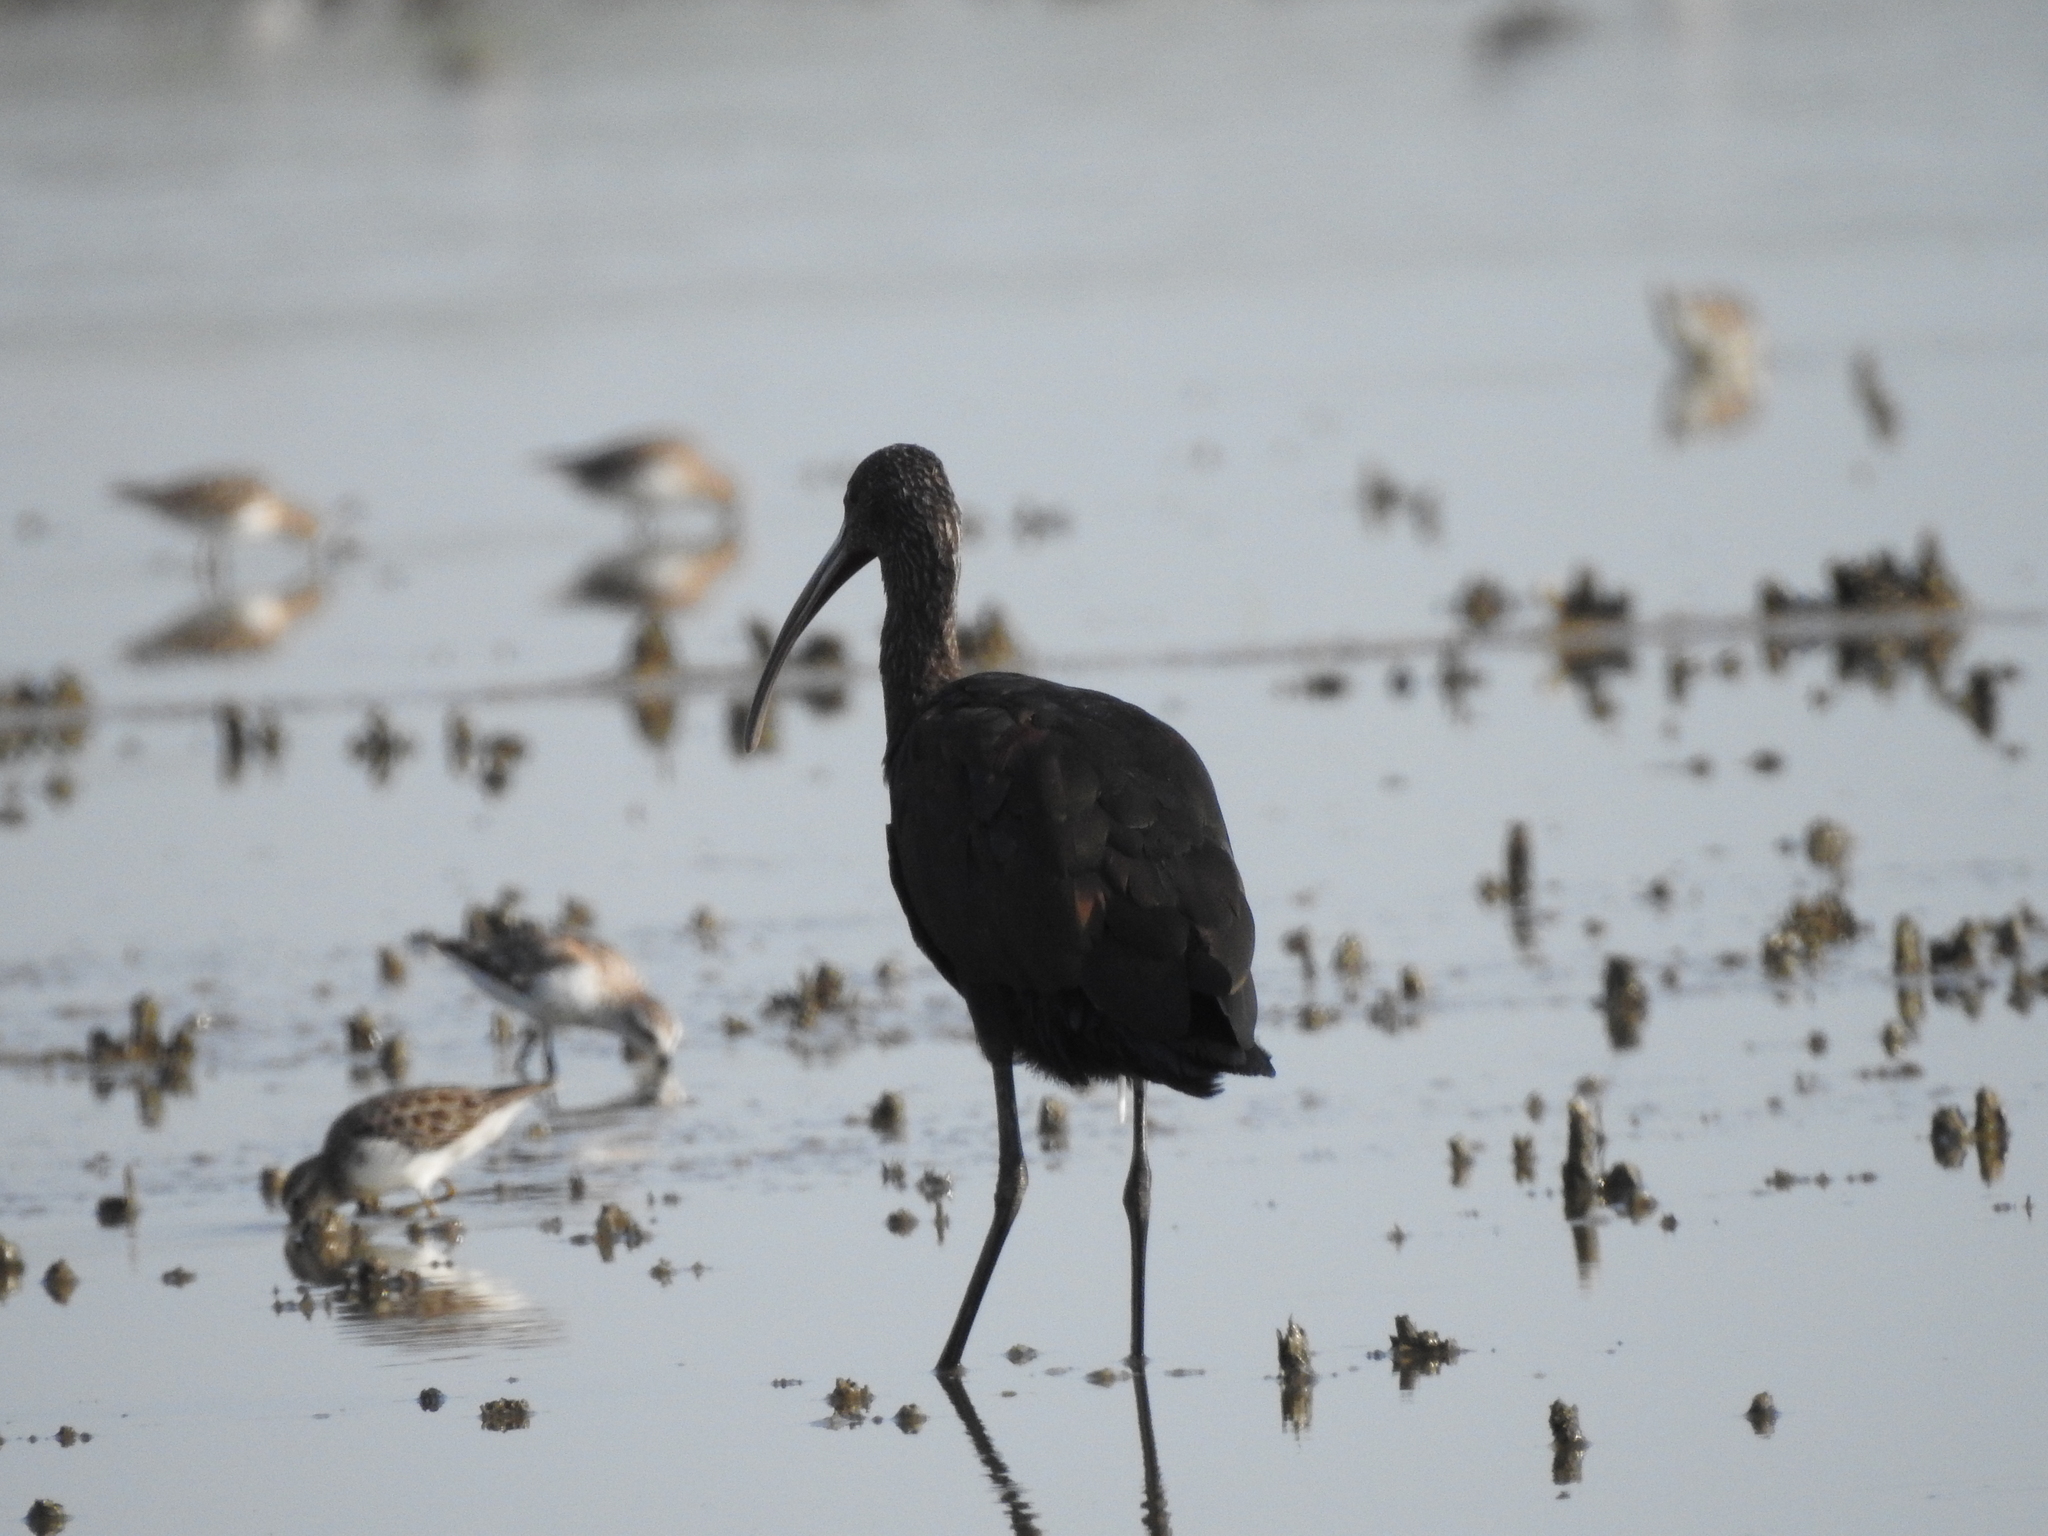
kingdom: Animalia
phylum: Chordata
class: Aves
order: Pelecaniformes
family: Threskiornithidae
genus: Plegadis
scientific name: Plegadis chihi
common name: White-faced ibis
